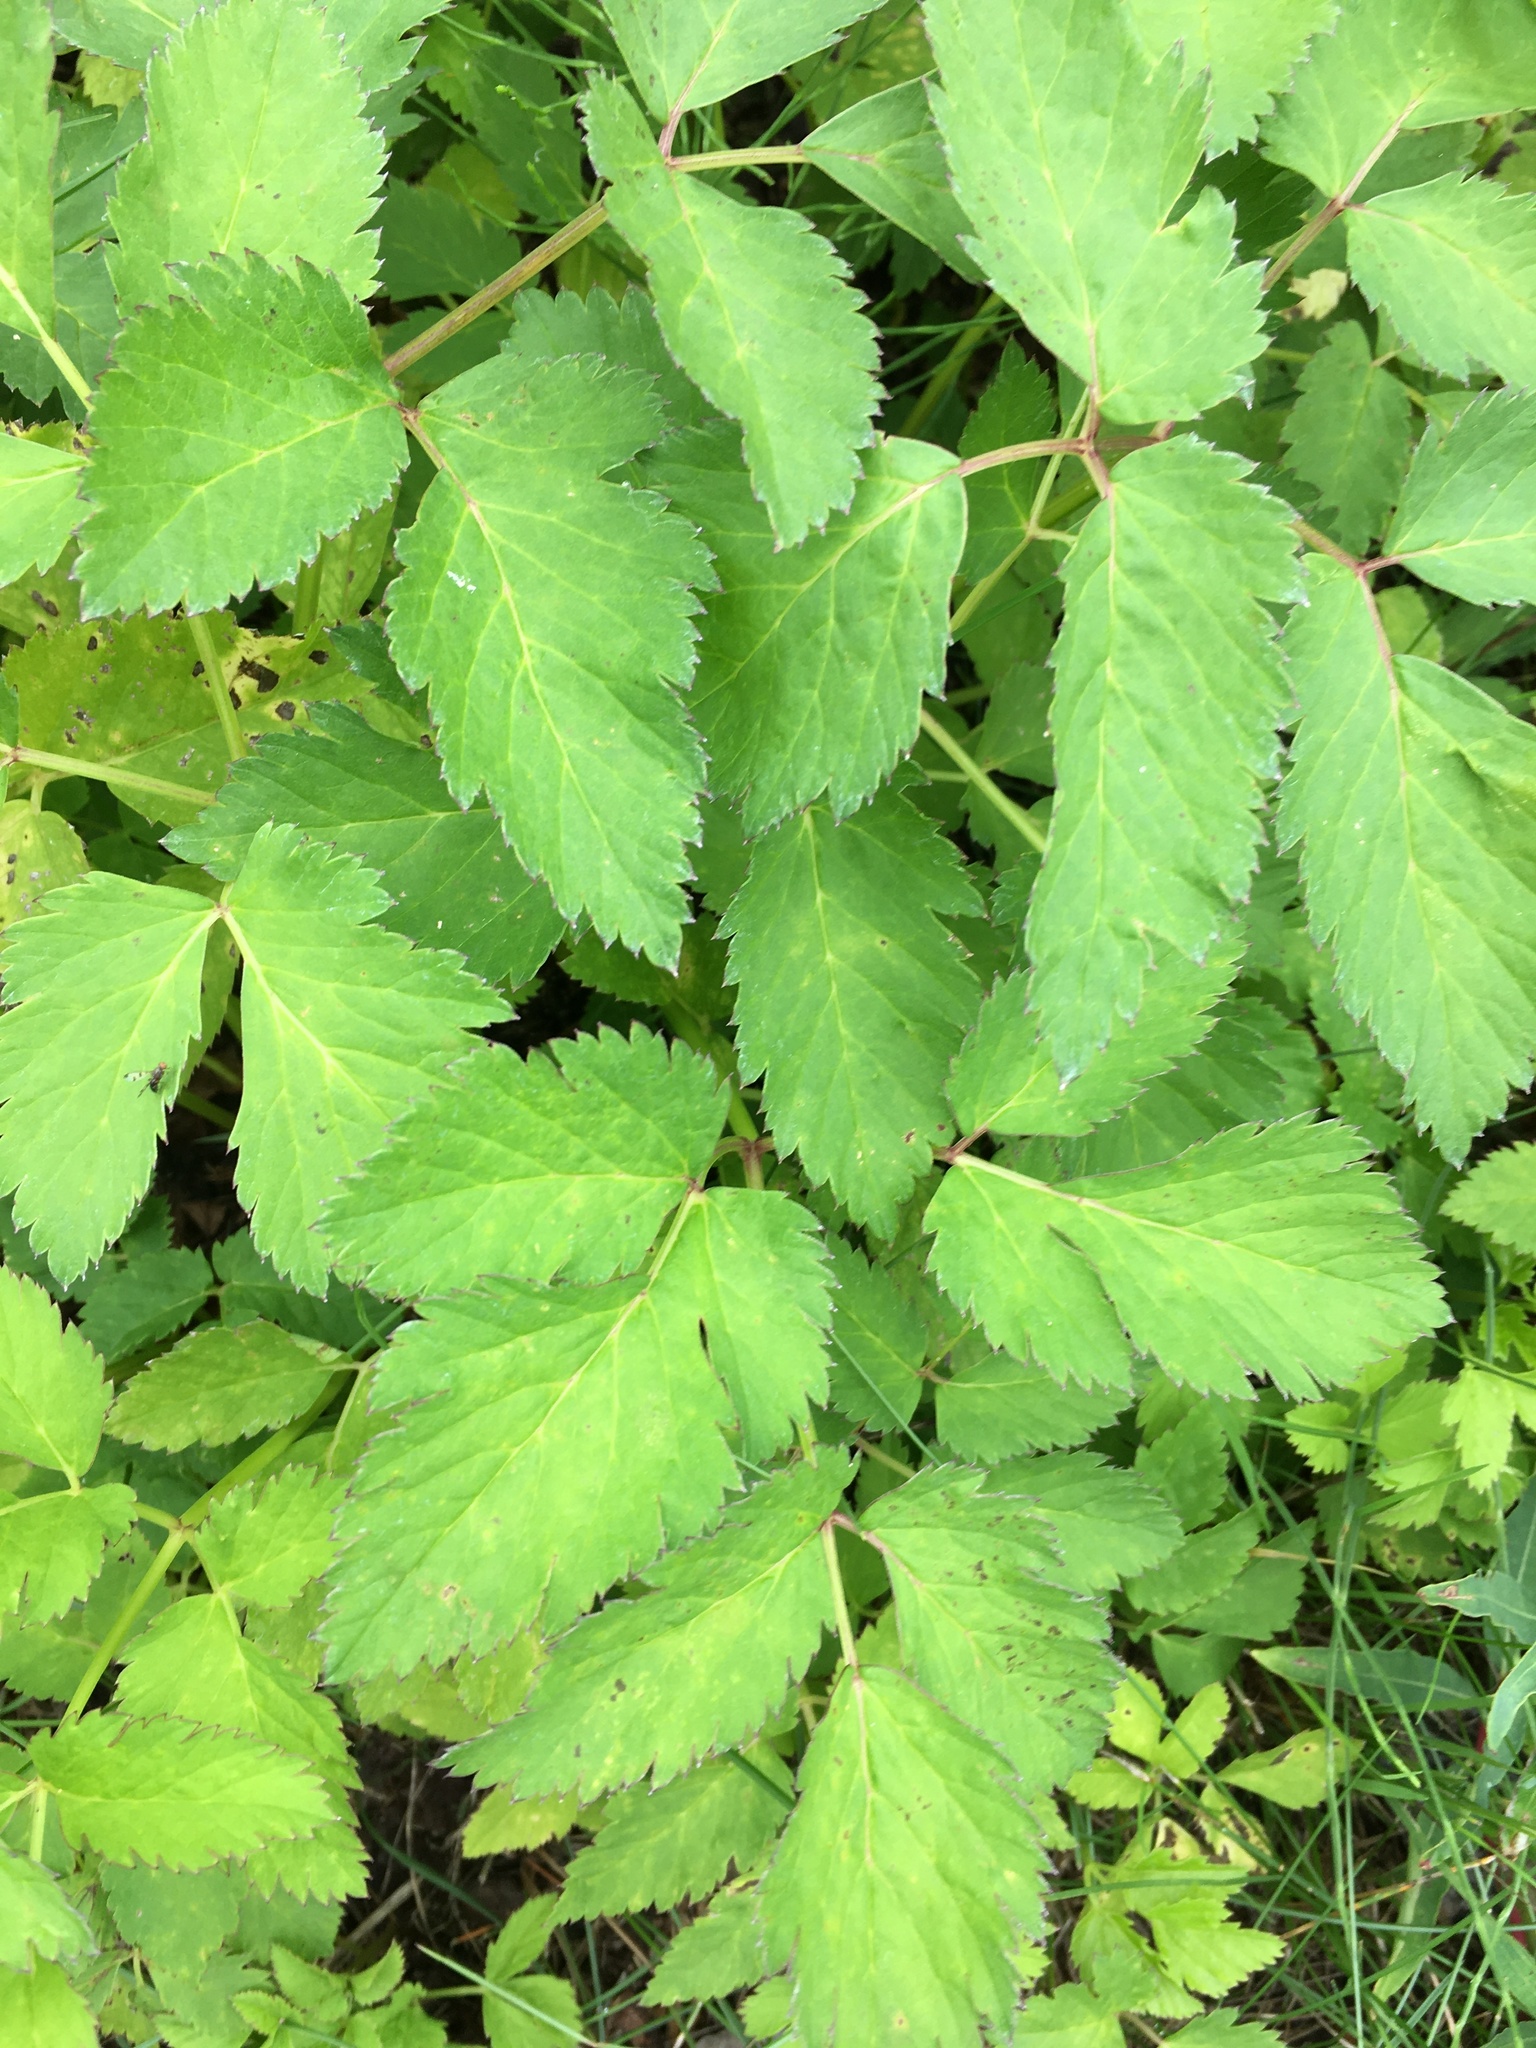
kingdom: Plantae
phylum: Tracheophyta
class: Magnoliopsida
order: Apiales
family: Apiaceae
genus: Aegopodium
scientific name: Aegopodium podagraria
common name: Ground-elder
